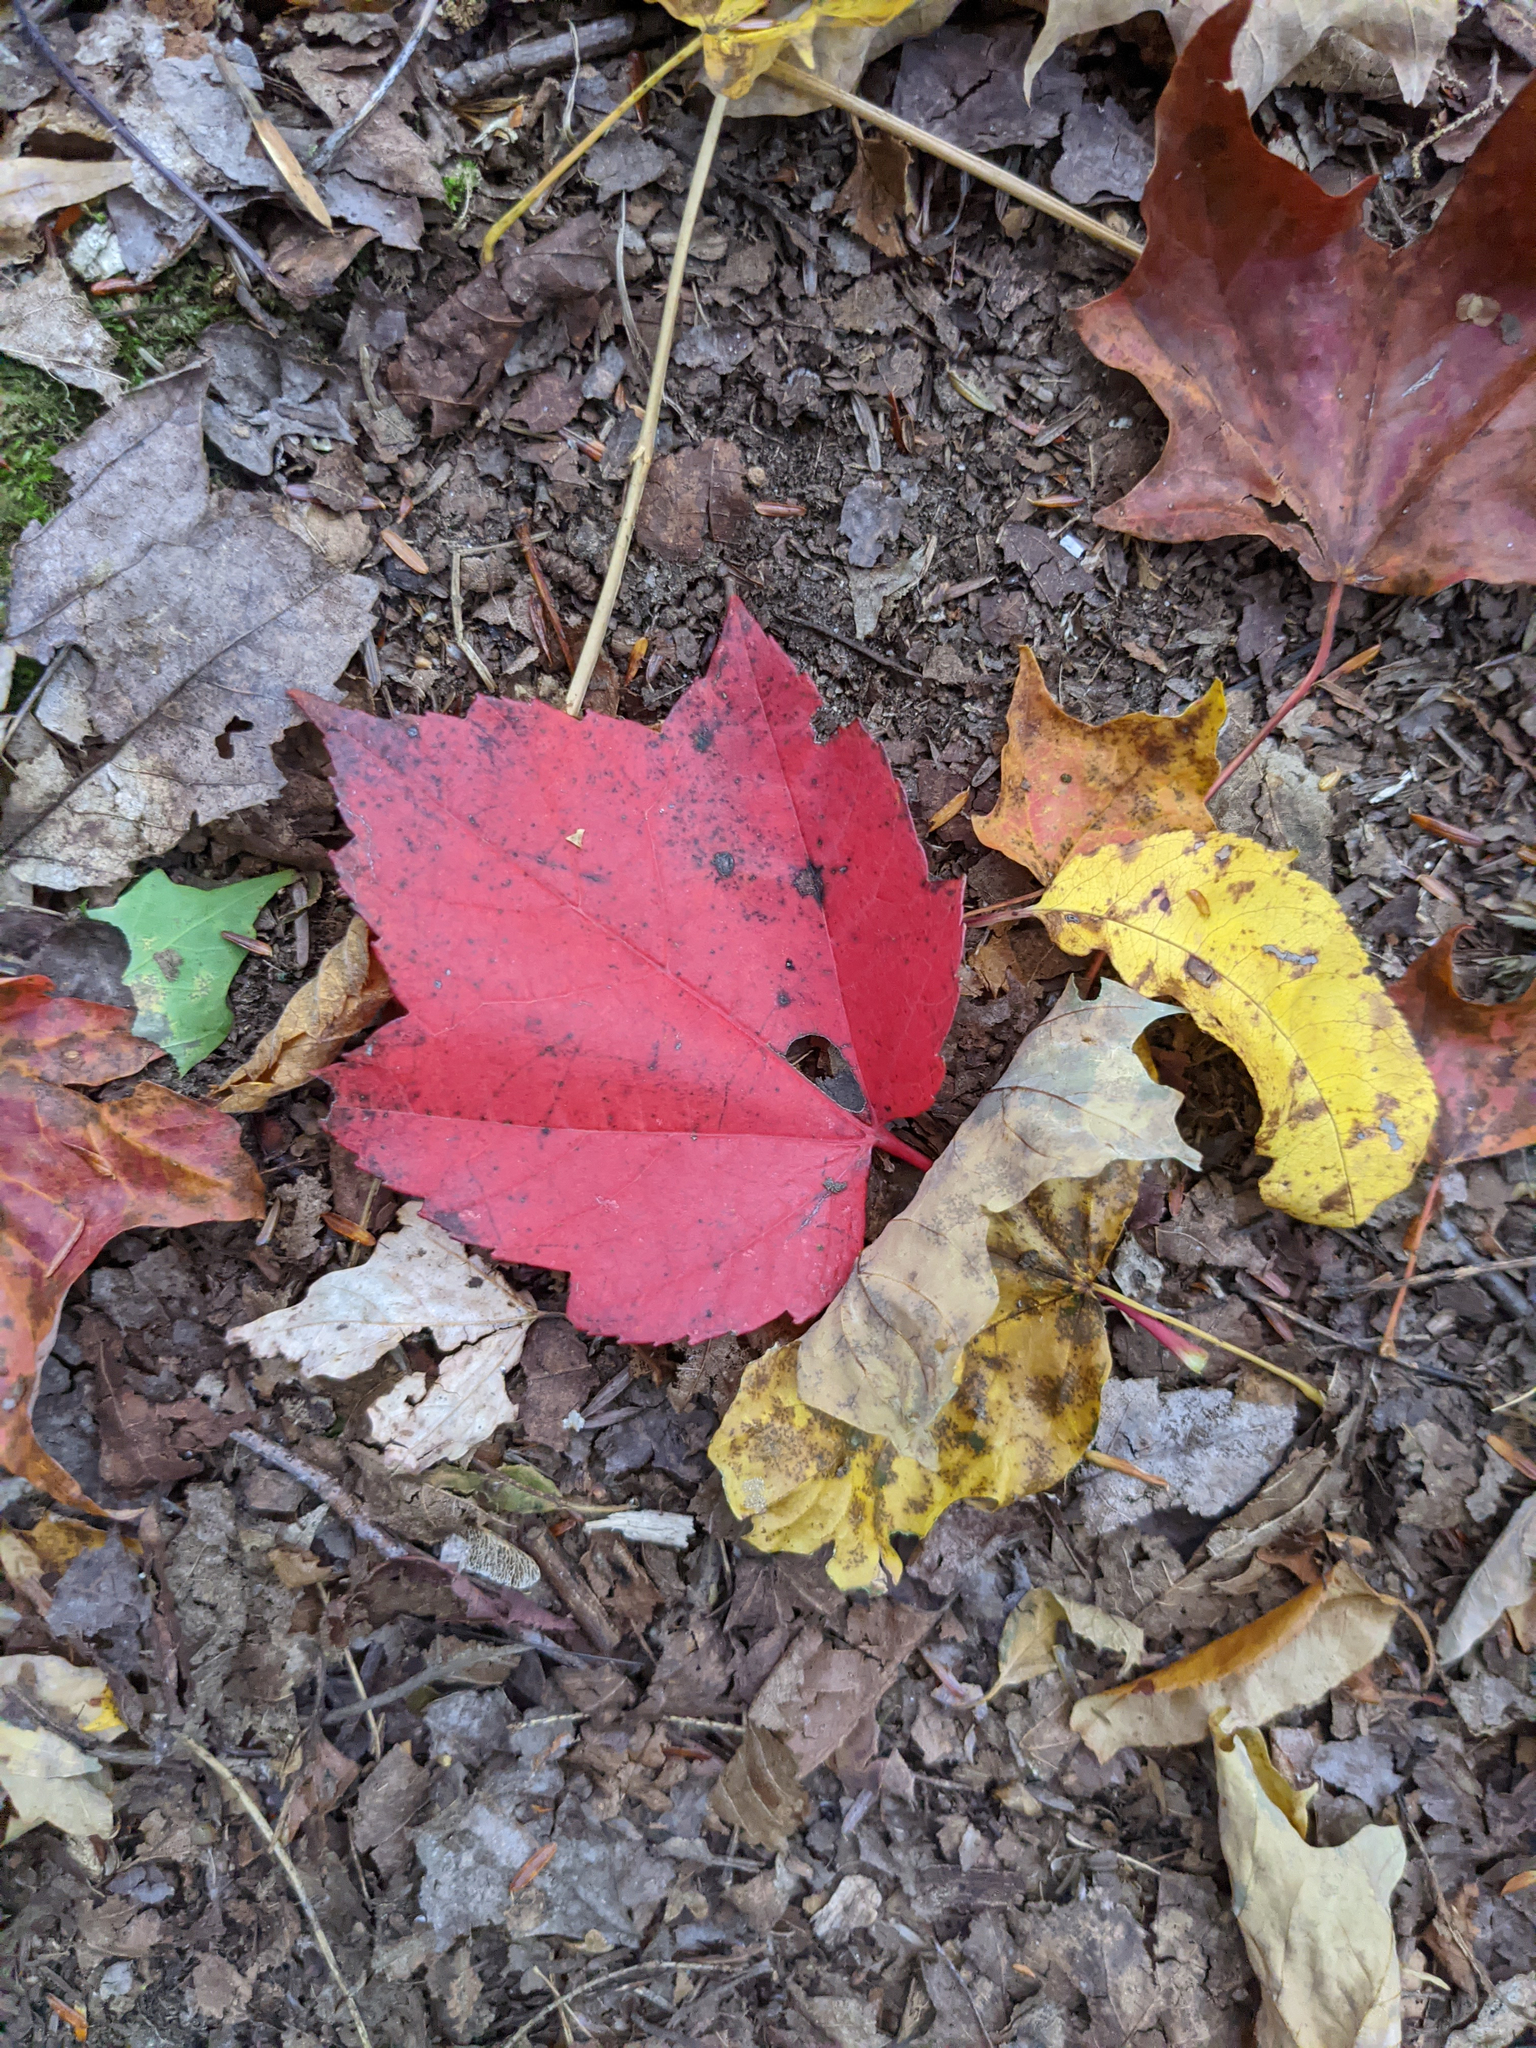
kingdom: Plantae
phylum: Tracheophyta
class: Magnoliopsida
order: Sapindales
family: Sapindaceae
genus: Acer
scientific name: Acer rubrum
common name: Red maple
